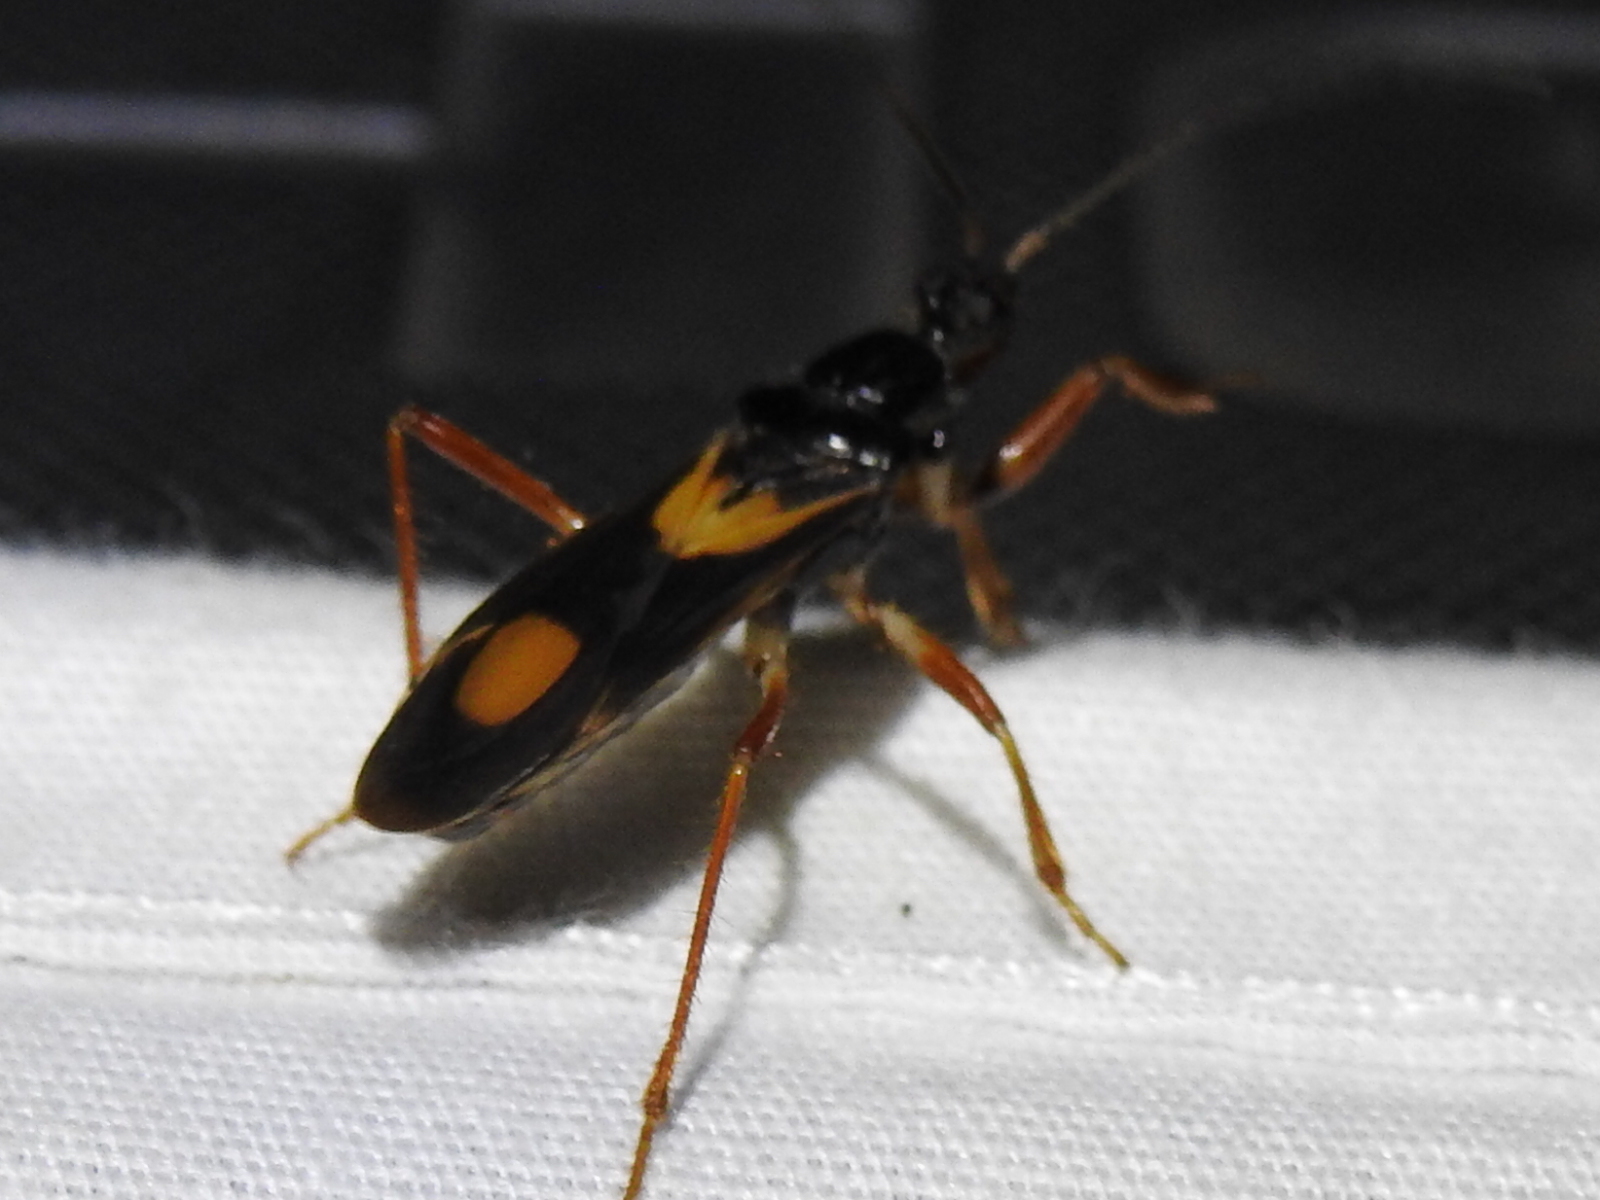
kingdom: Animalia
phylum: Arthropoda
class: Insecta
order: Hemiptera
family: Reduviidae
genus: Rasahus
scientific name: Rasahus hamatus
